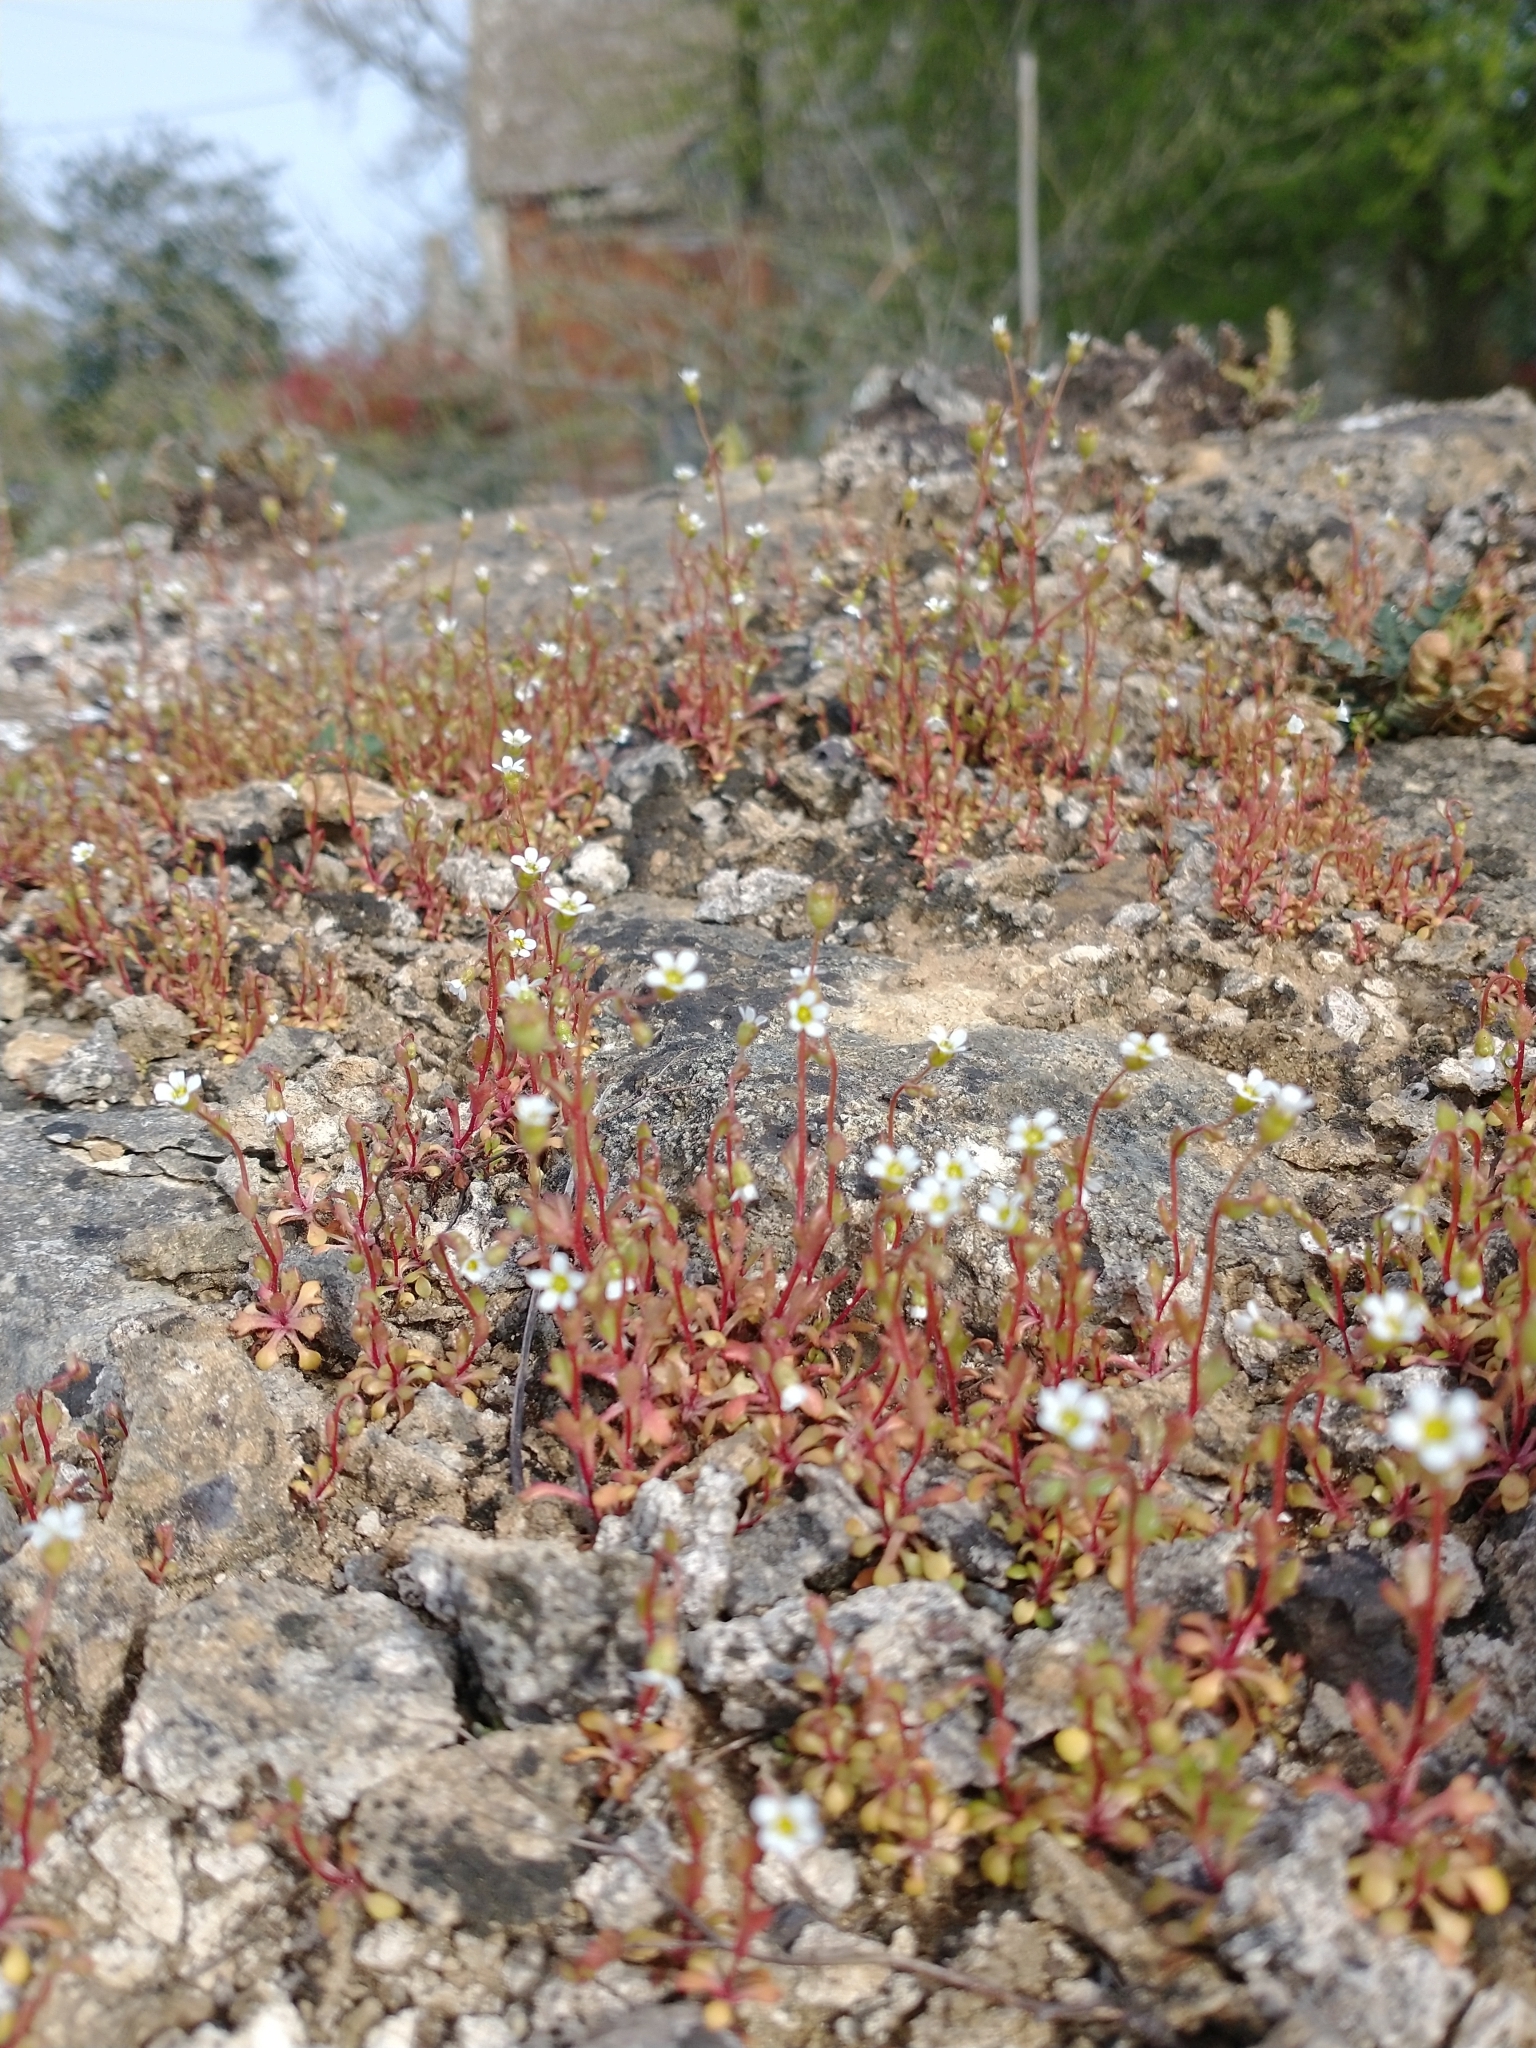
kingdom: Plantae
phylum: Tracheophyta
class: Magnoliopsida
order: Saxifragales
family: Saxifragaceae
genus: Saxifraga
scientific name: Saxifraga tridactylites
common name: Rue-leaved saxifrage
